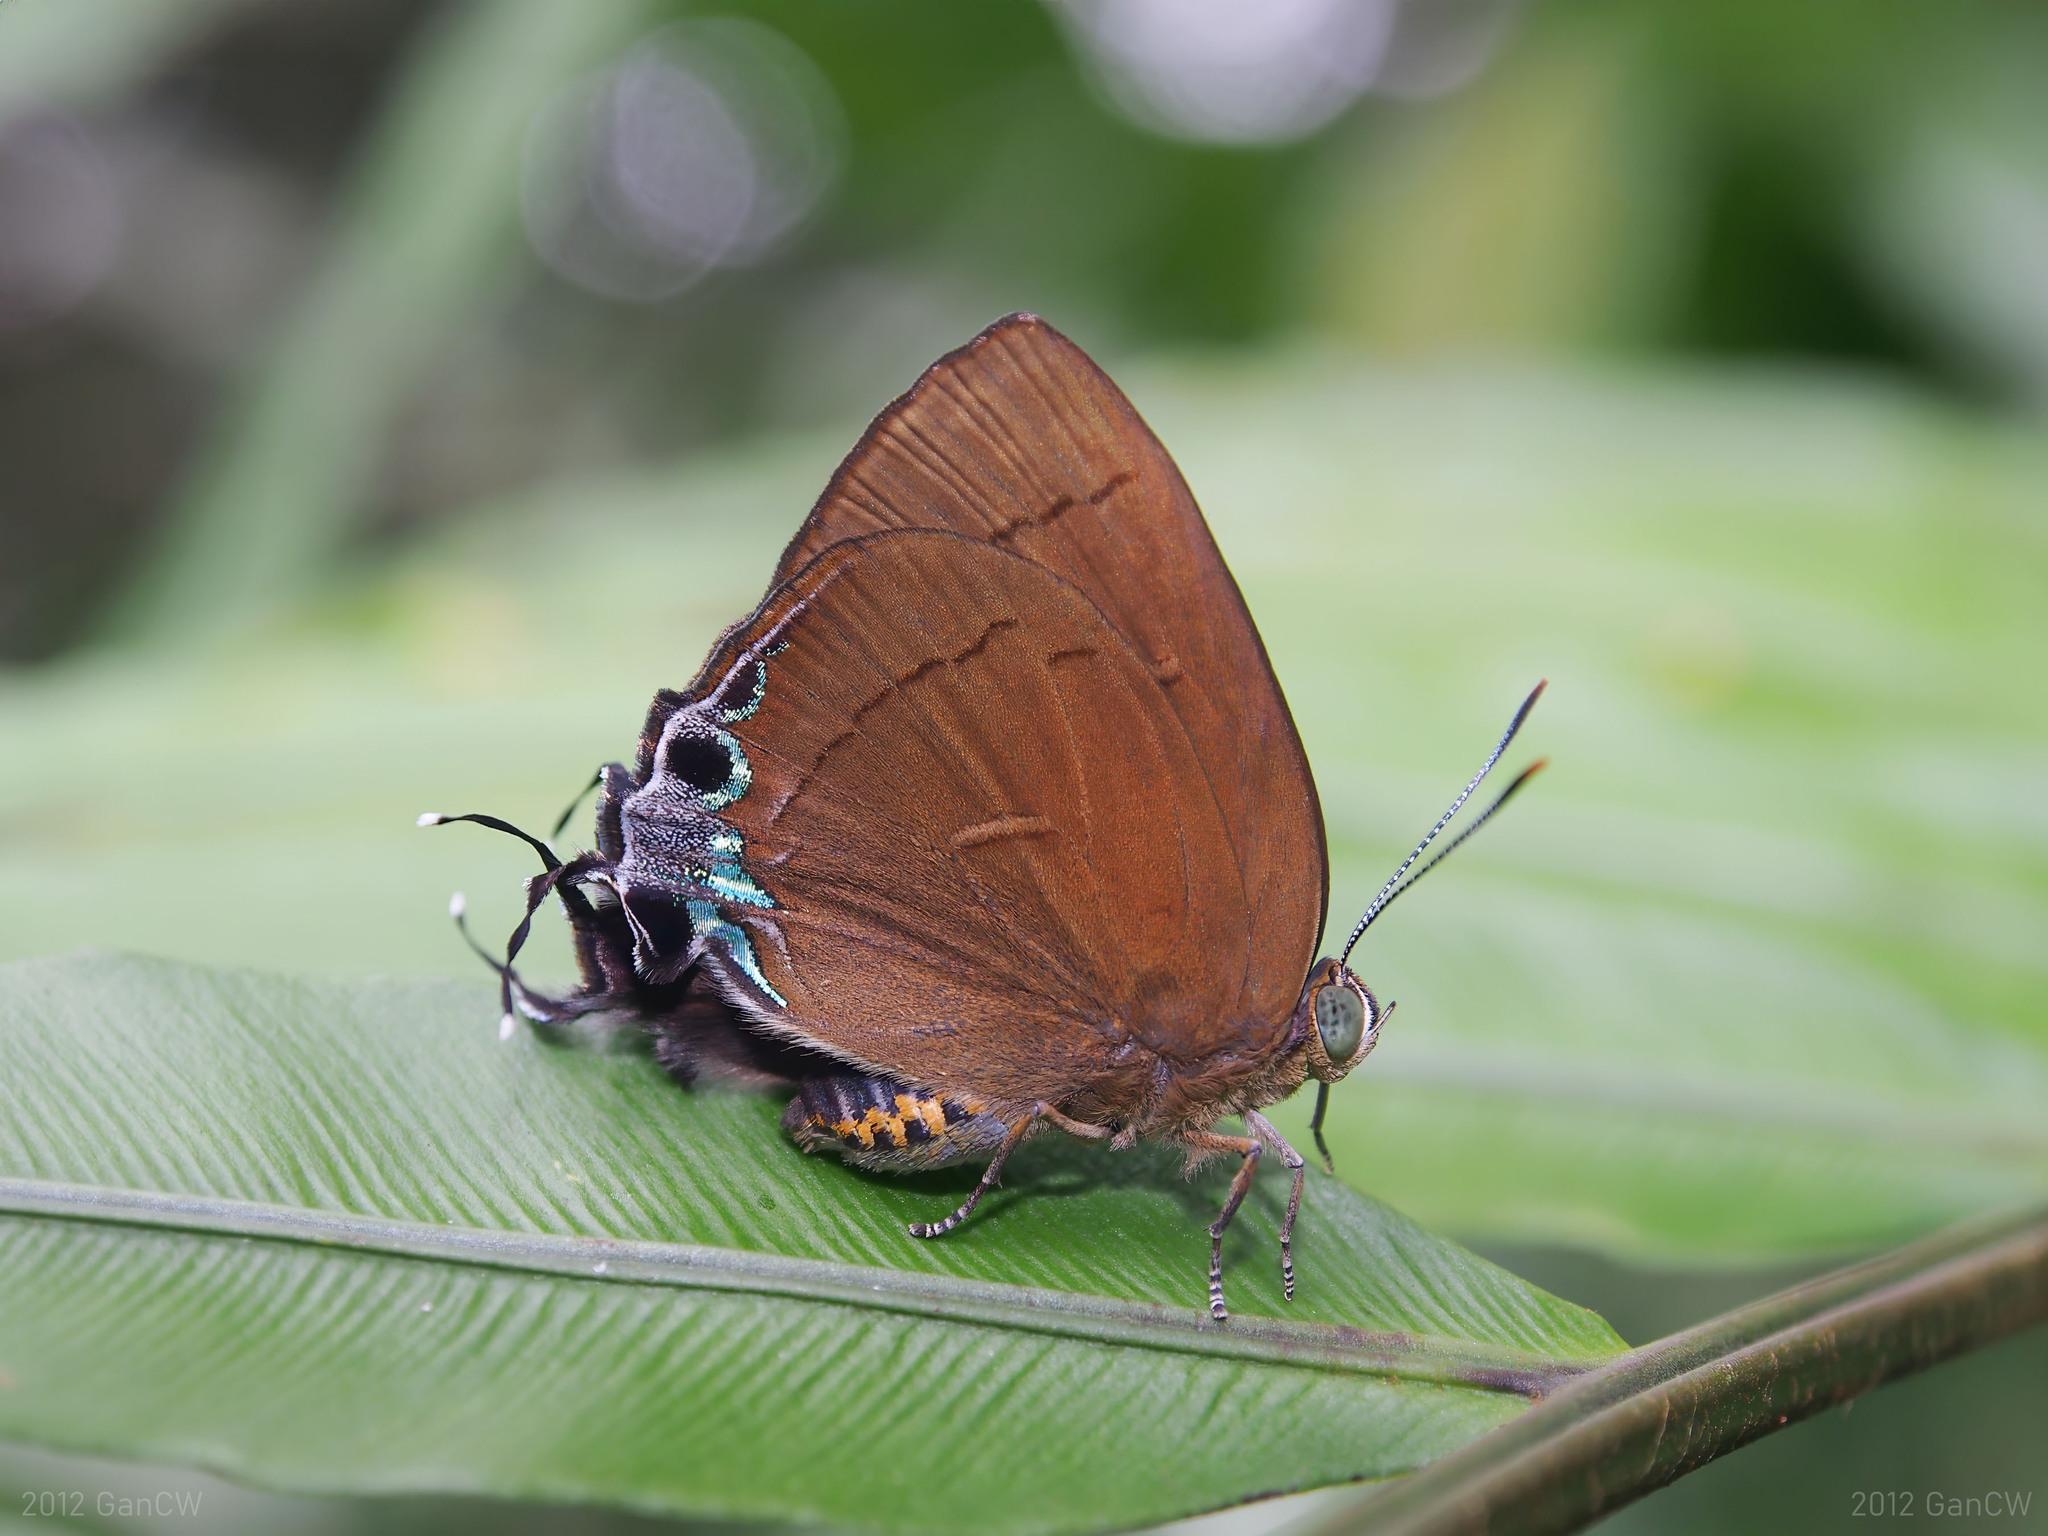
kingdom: Animalia
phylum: Arthropoda
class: Insecta
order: Lepidoptera
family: Lycaenidae
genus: Remelana
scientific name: Remelana jangala
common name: Chocolate royal
